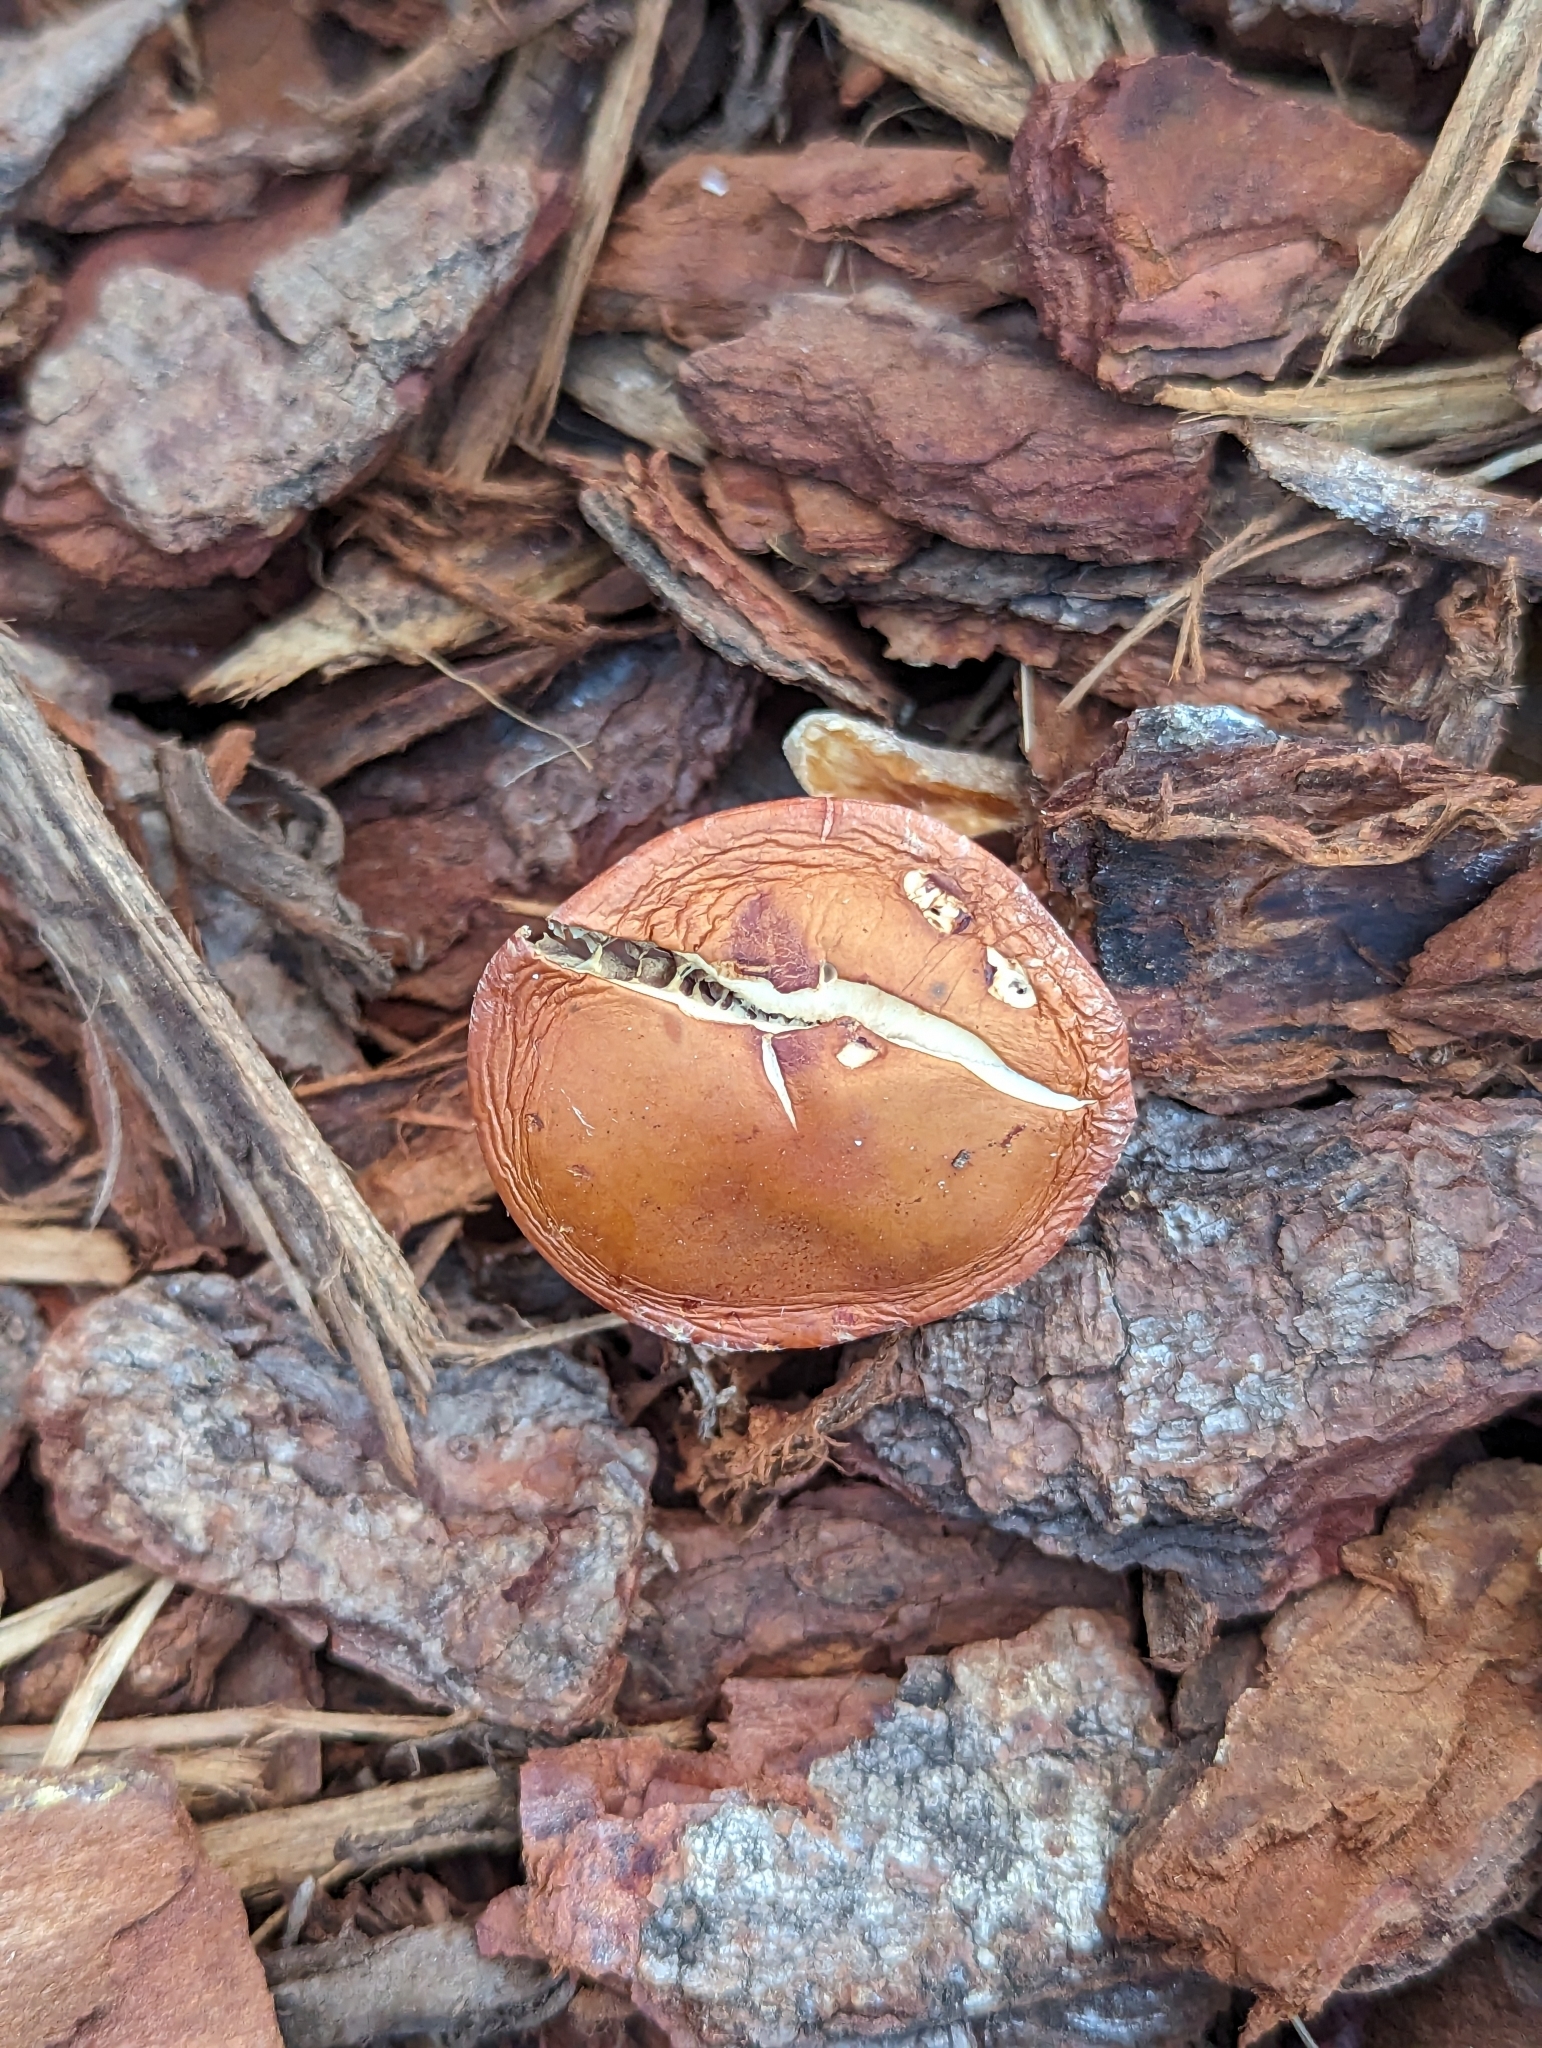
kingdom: Fungi
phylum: Basidiomycota
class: Agaricomycetes
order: Agaricales
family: Strophariaceae
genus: Leratiomyces
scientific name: Leratiomyces ceres
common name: Redlead roundhead
